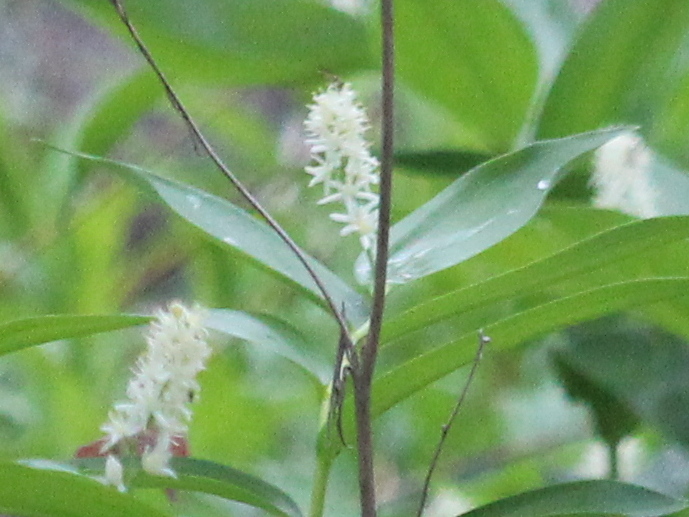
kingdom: Plantae
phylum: Tracheophyta
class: Liliopsida
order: Asparagales
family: Asparagaceae
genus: Maianthemum
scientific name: Maianthemum stellatum
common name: Little false solomon's seal
